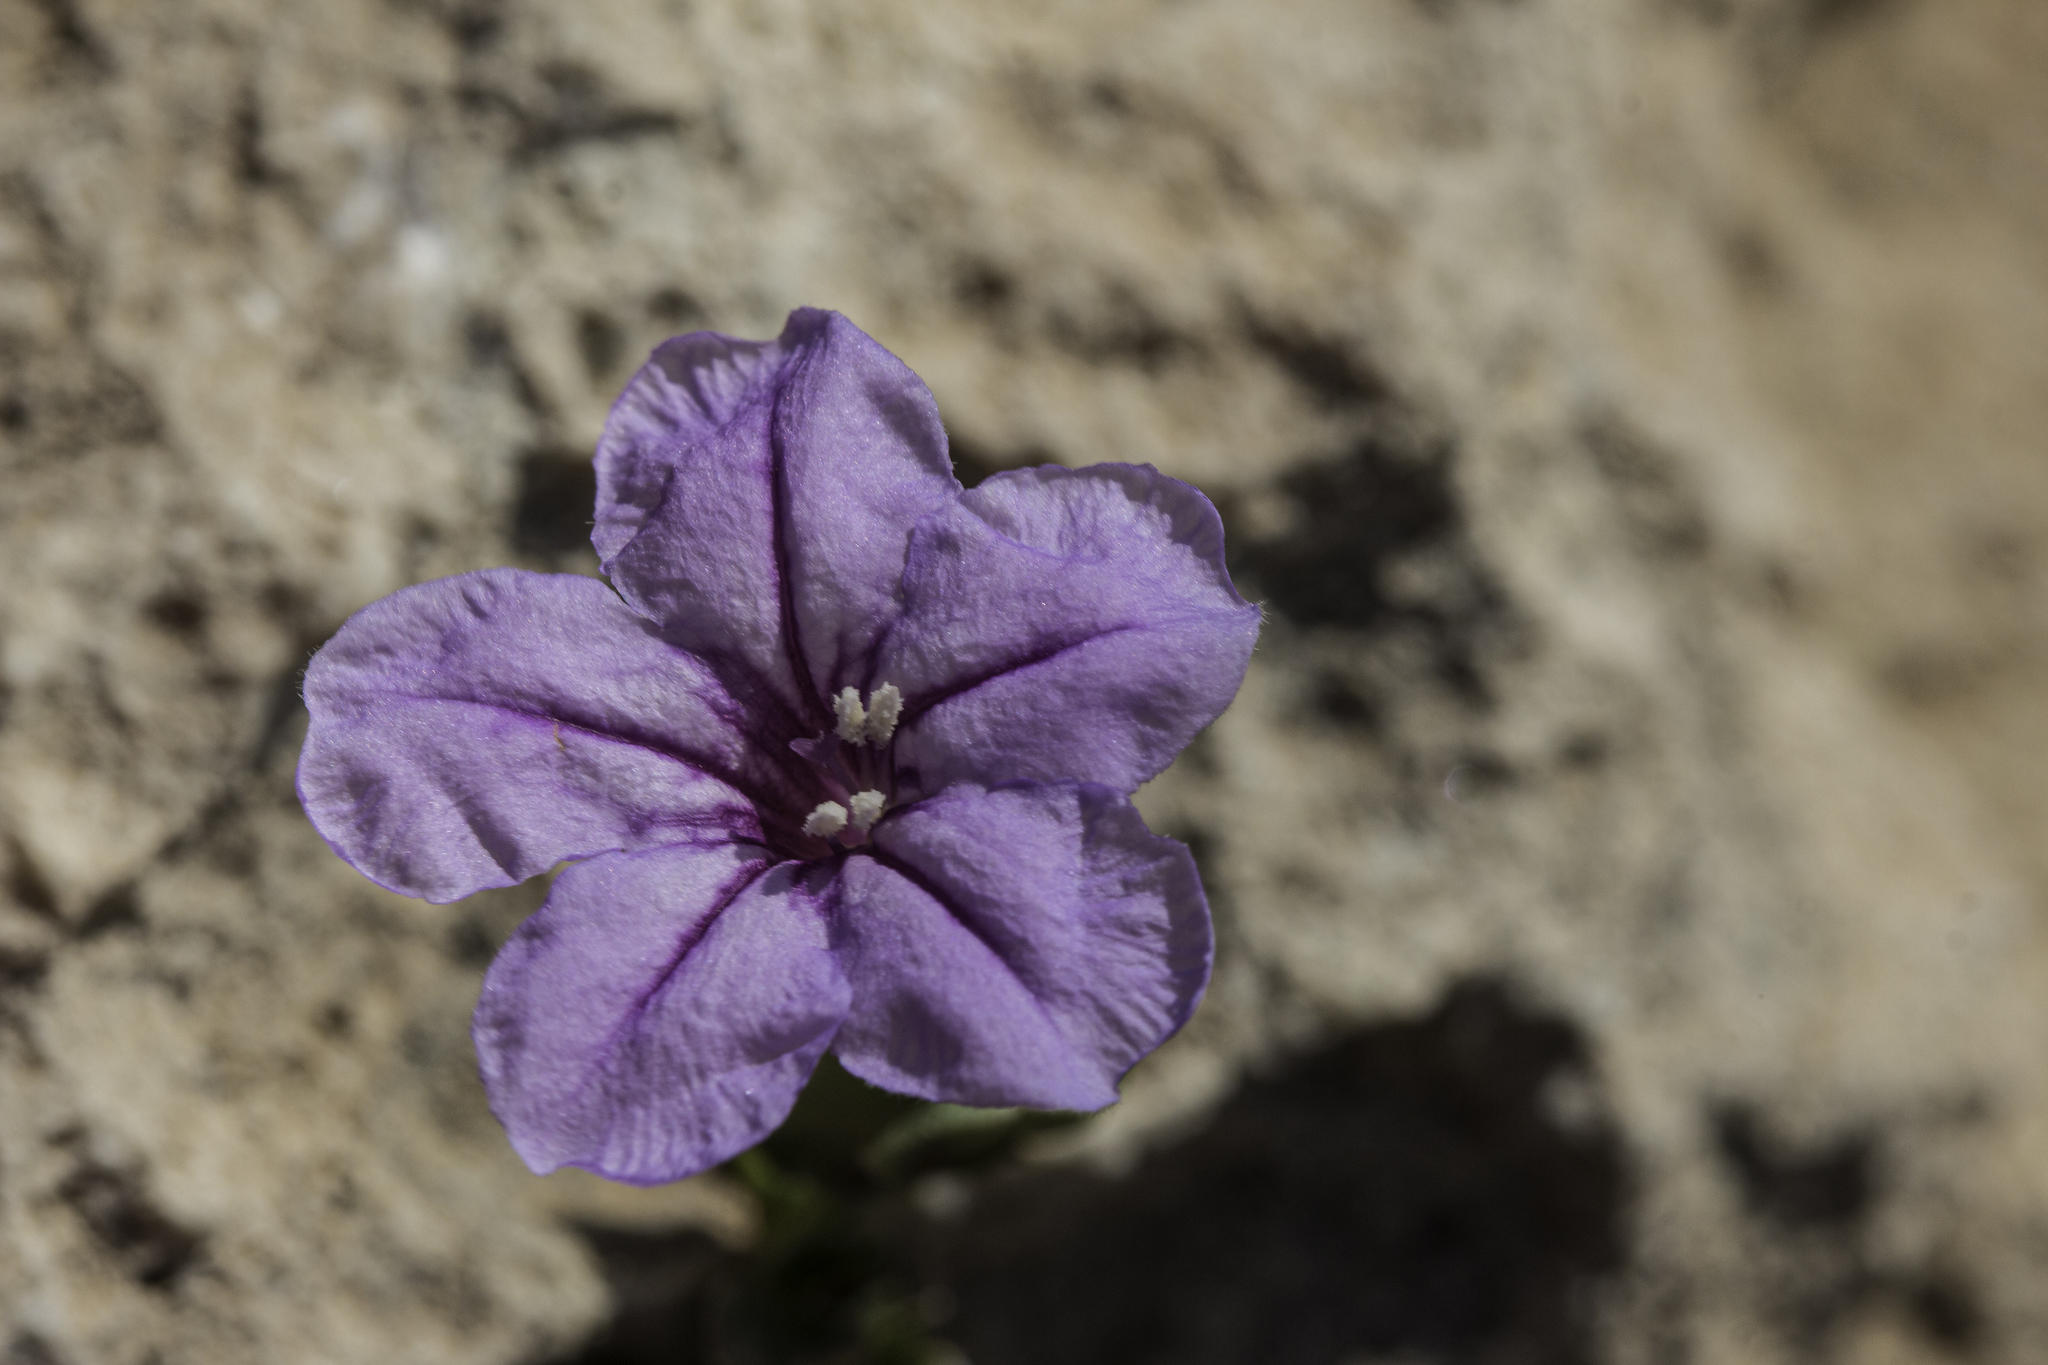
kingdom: Plantae
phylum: Tracheophyta
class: Magnoliopsida
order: Lamiales
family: Acanthaceae
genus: Ruellia
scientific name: Ruellia parryi
